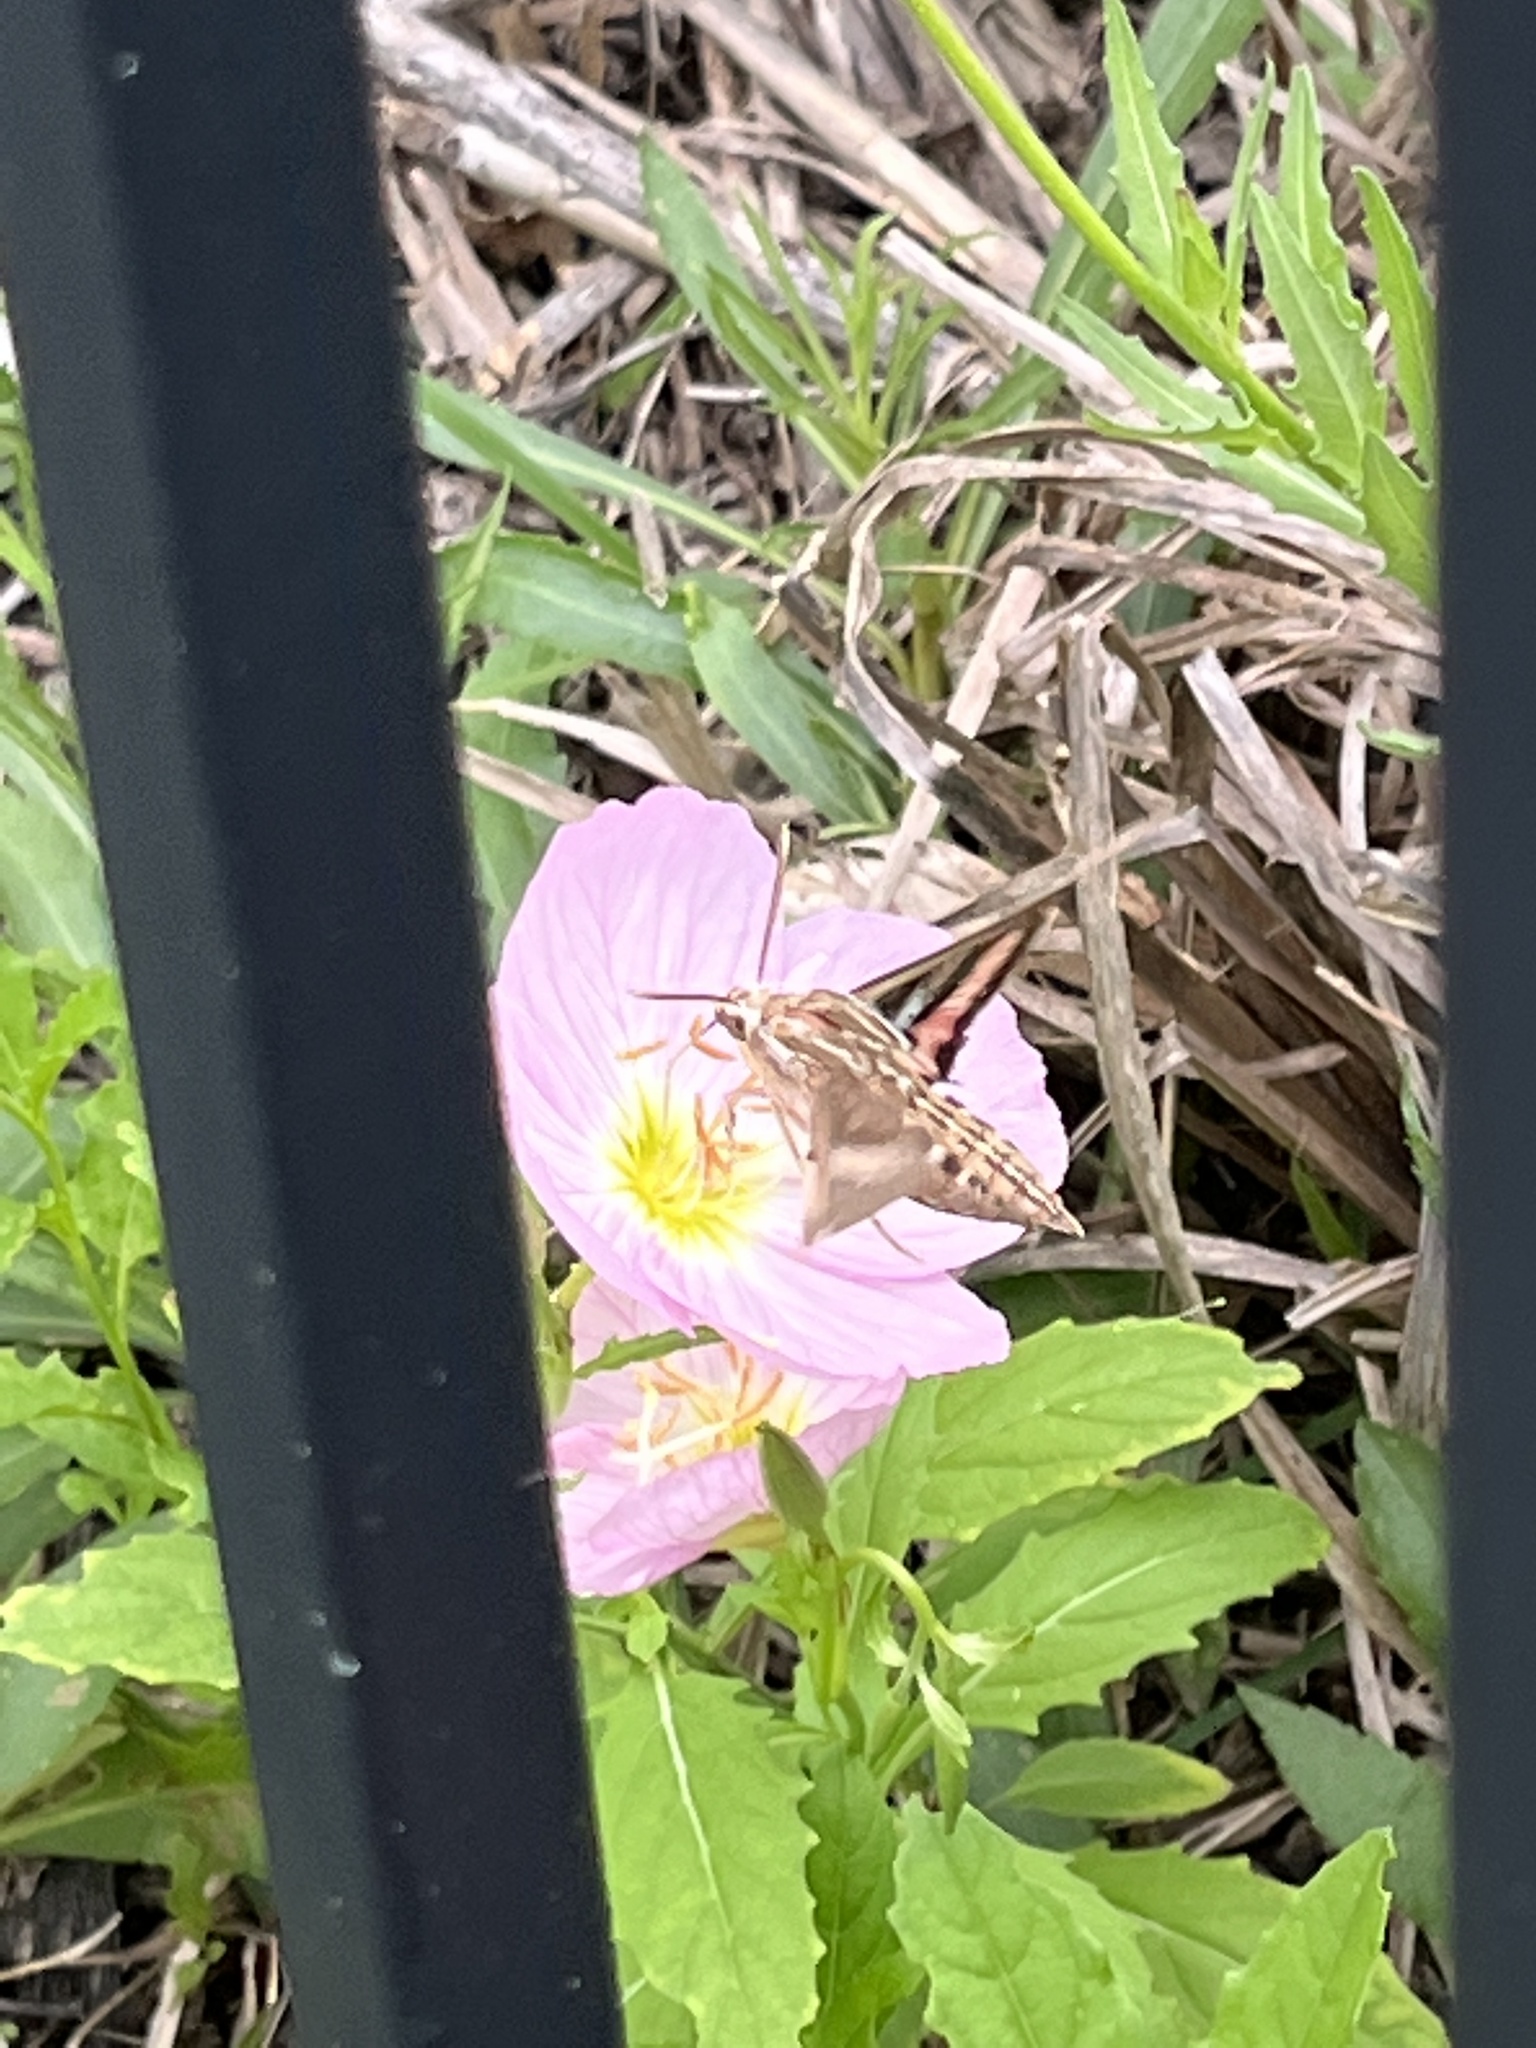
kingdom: Animalia
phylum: Arthropoda
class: Insecta
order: Lepidoptera
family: Sphingidae
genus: Hyles
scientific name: Hyles lineata
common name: White-lined sphinx
